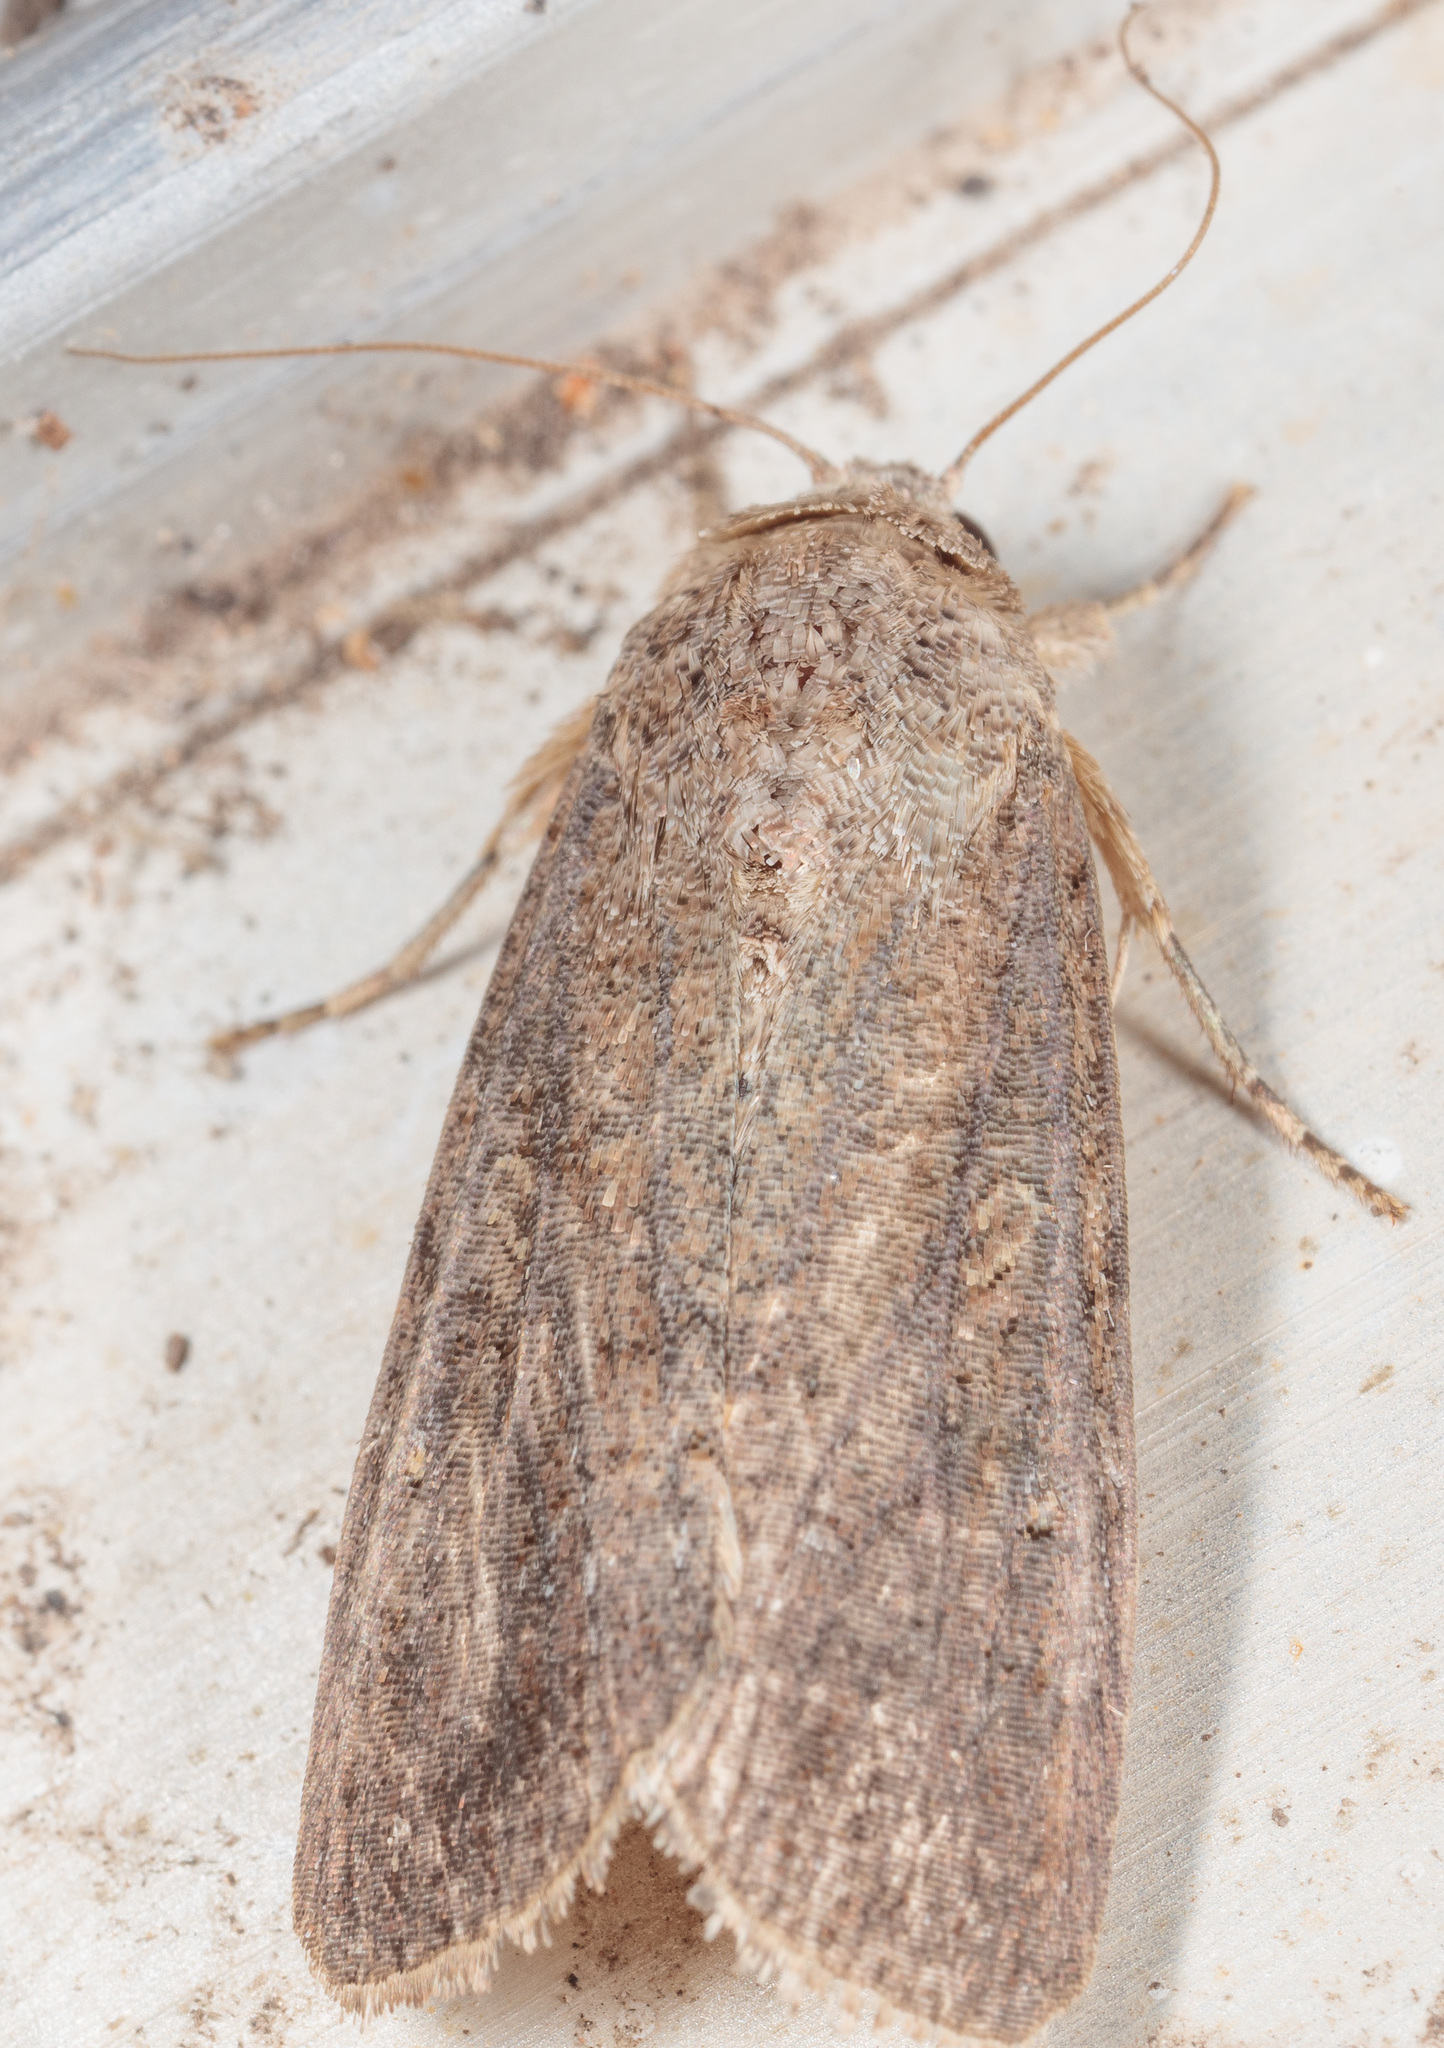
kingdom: Animalia
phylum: Arthropoda
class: Insecta
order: Lepidoptera
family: Noctuidae
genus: Spodoptera
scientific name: Spodoptera frugiperda
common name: Fall armyworm
